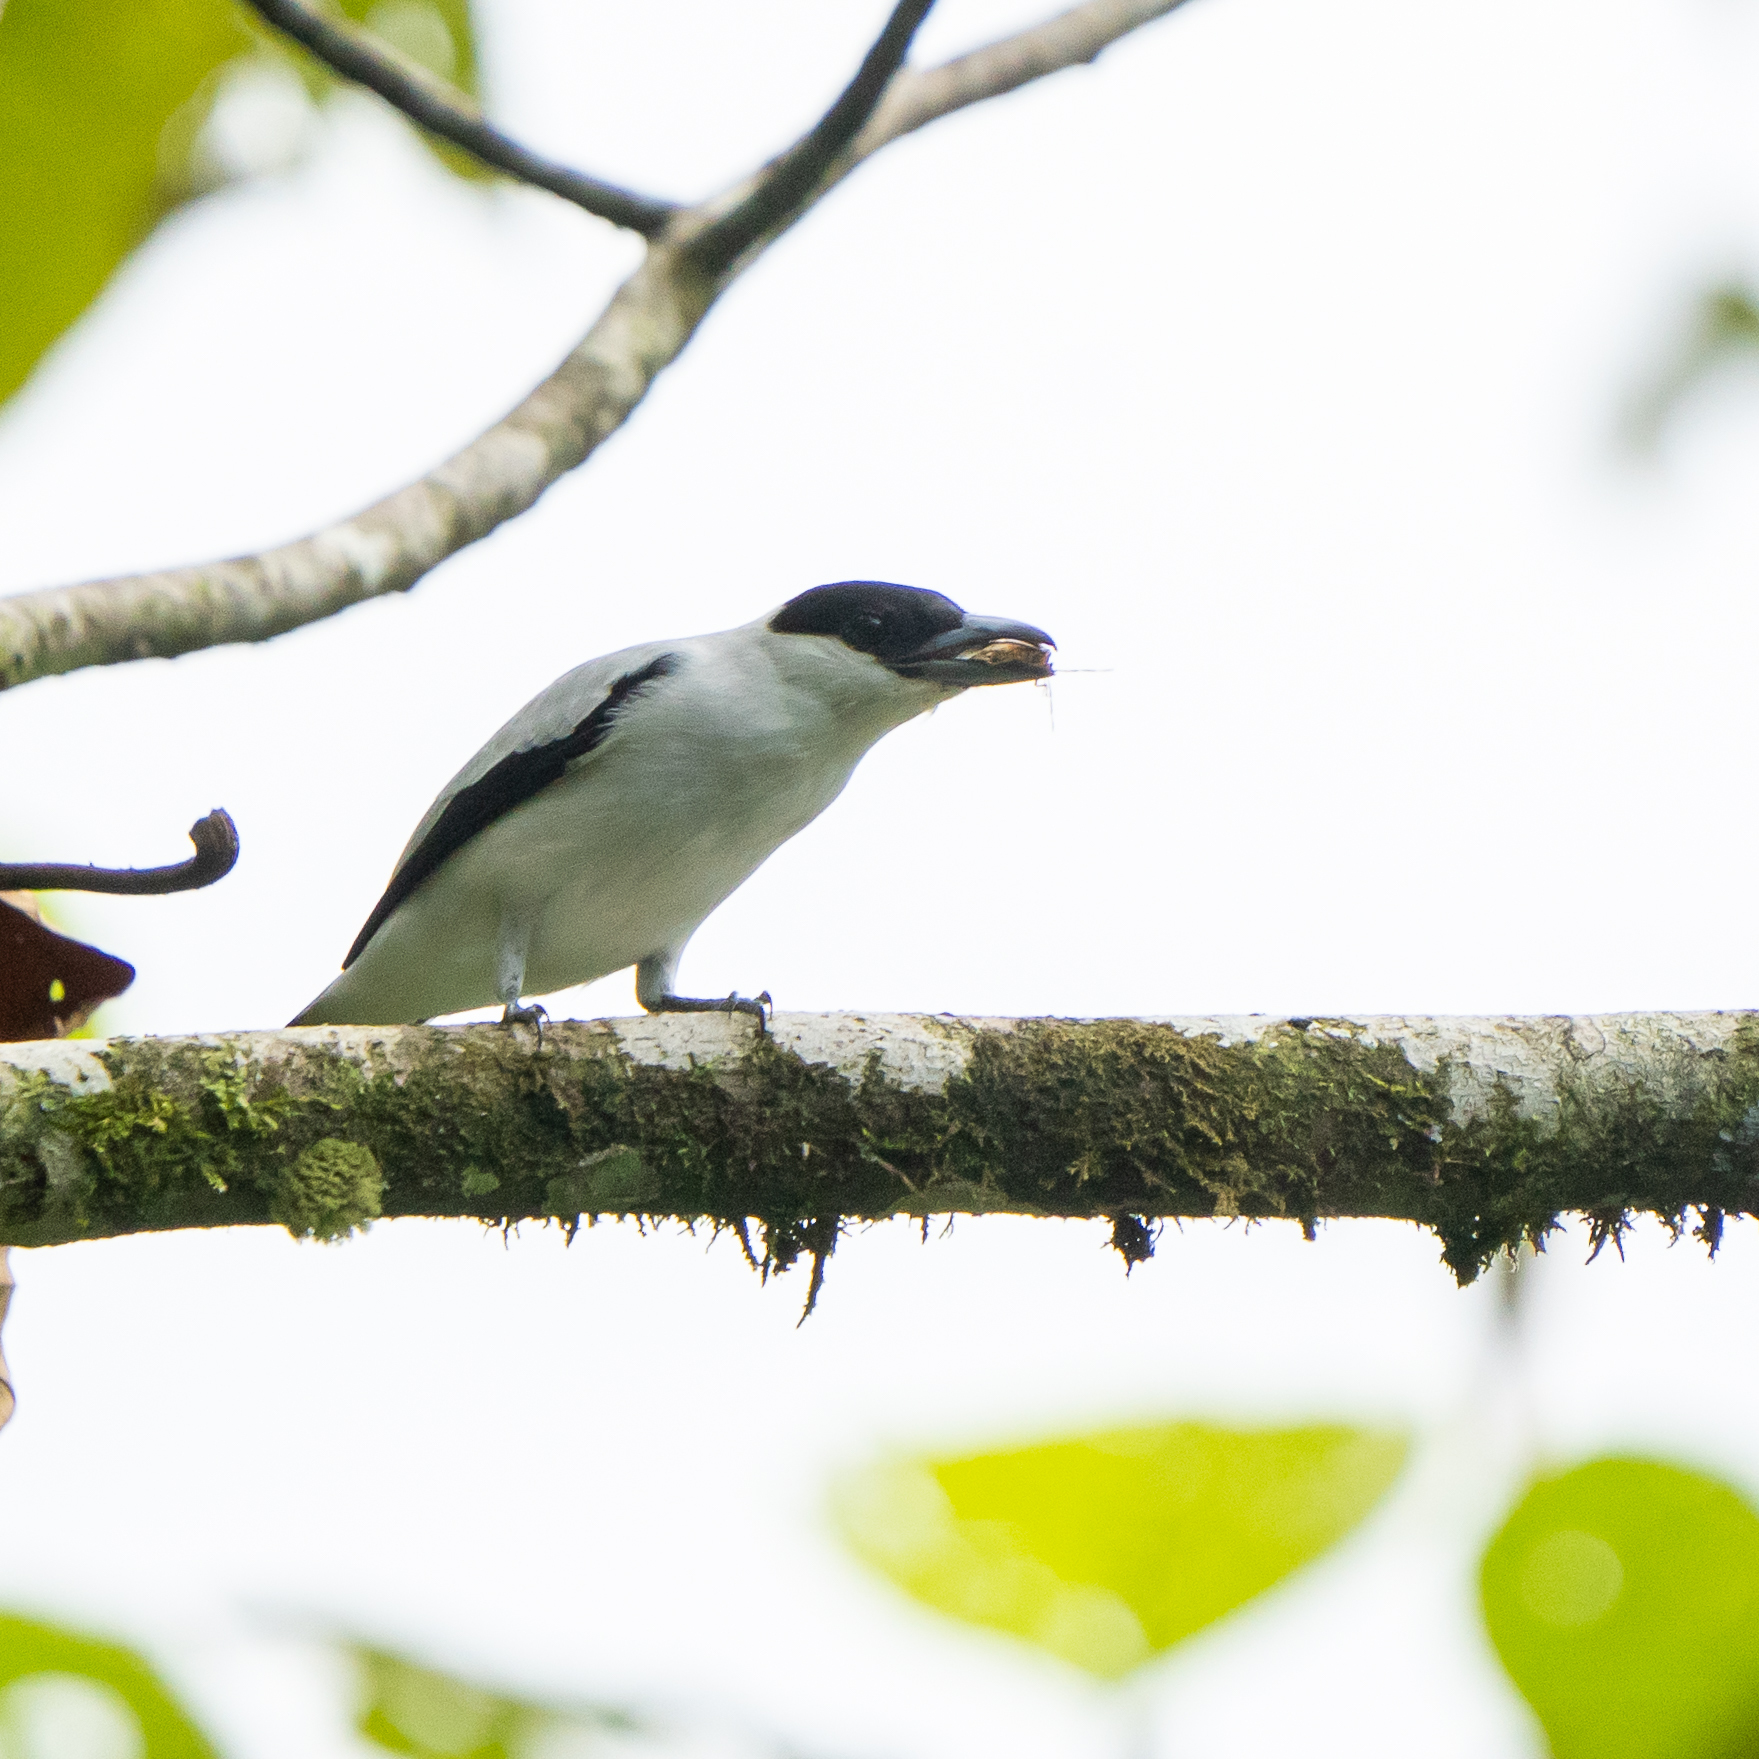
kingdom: Animalia
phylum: Chordata
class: Aves
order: Passeriformes
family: Cotingidae
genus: Tityra
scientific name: Tityra inquisitor
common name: Black-crowned tityra
